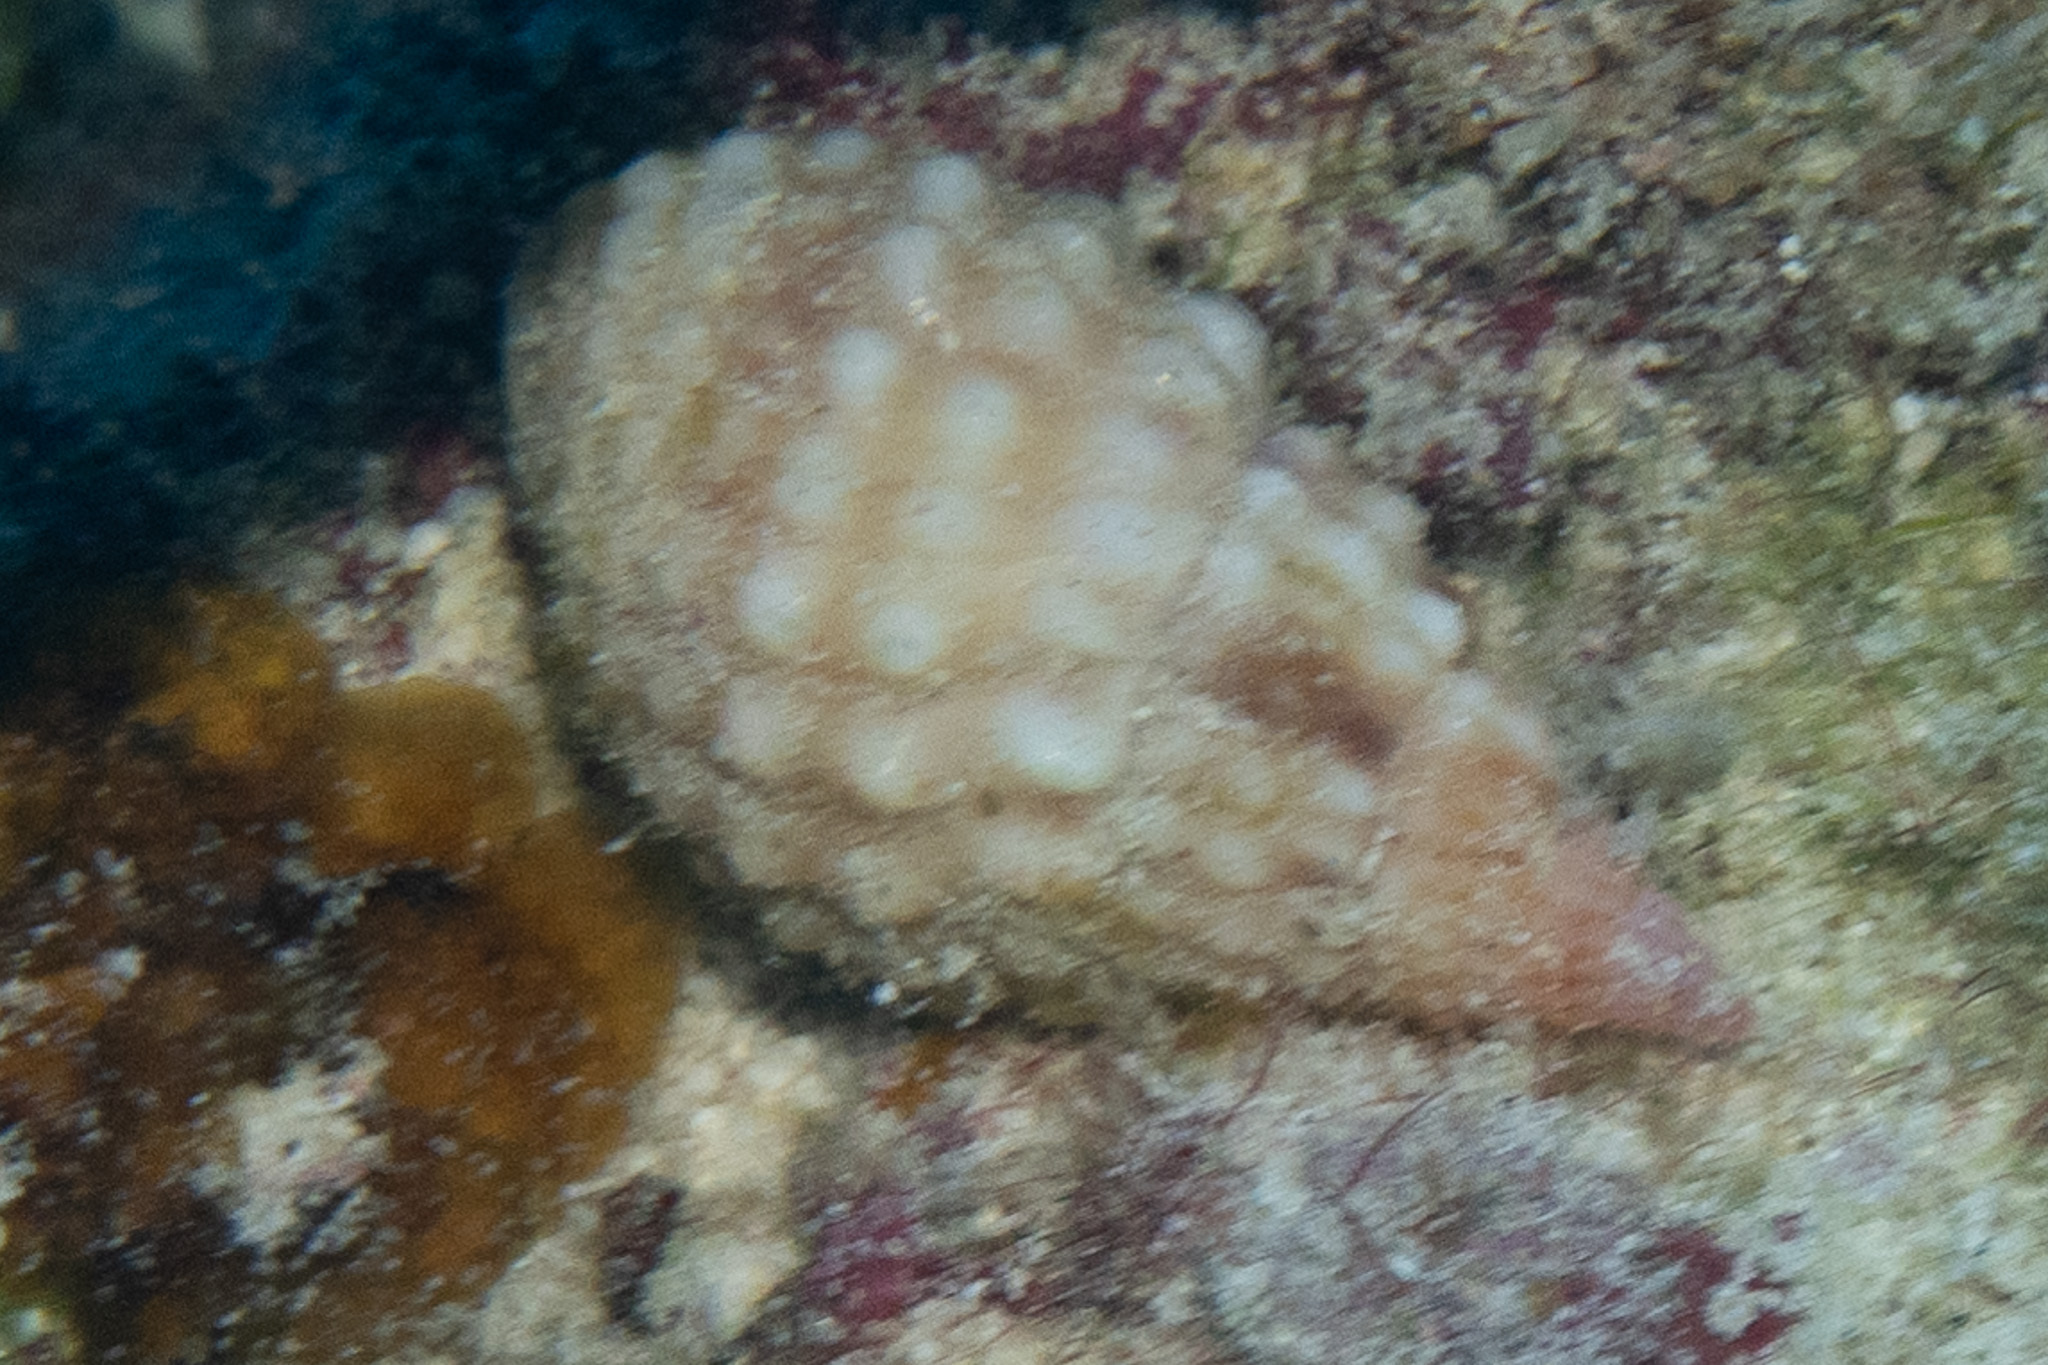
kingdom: Animalia
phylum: Mollusca
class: Gastropoda
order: Neogastropoda
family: Nassariidae
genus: Nassarius
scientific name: Nassarius papillosus
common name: Papillose nassa
